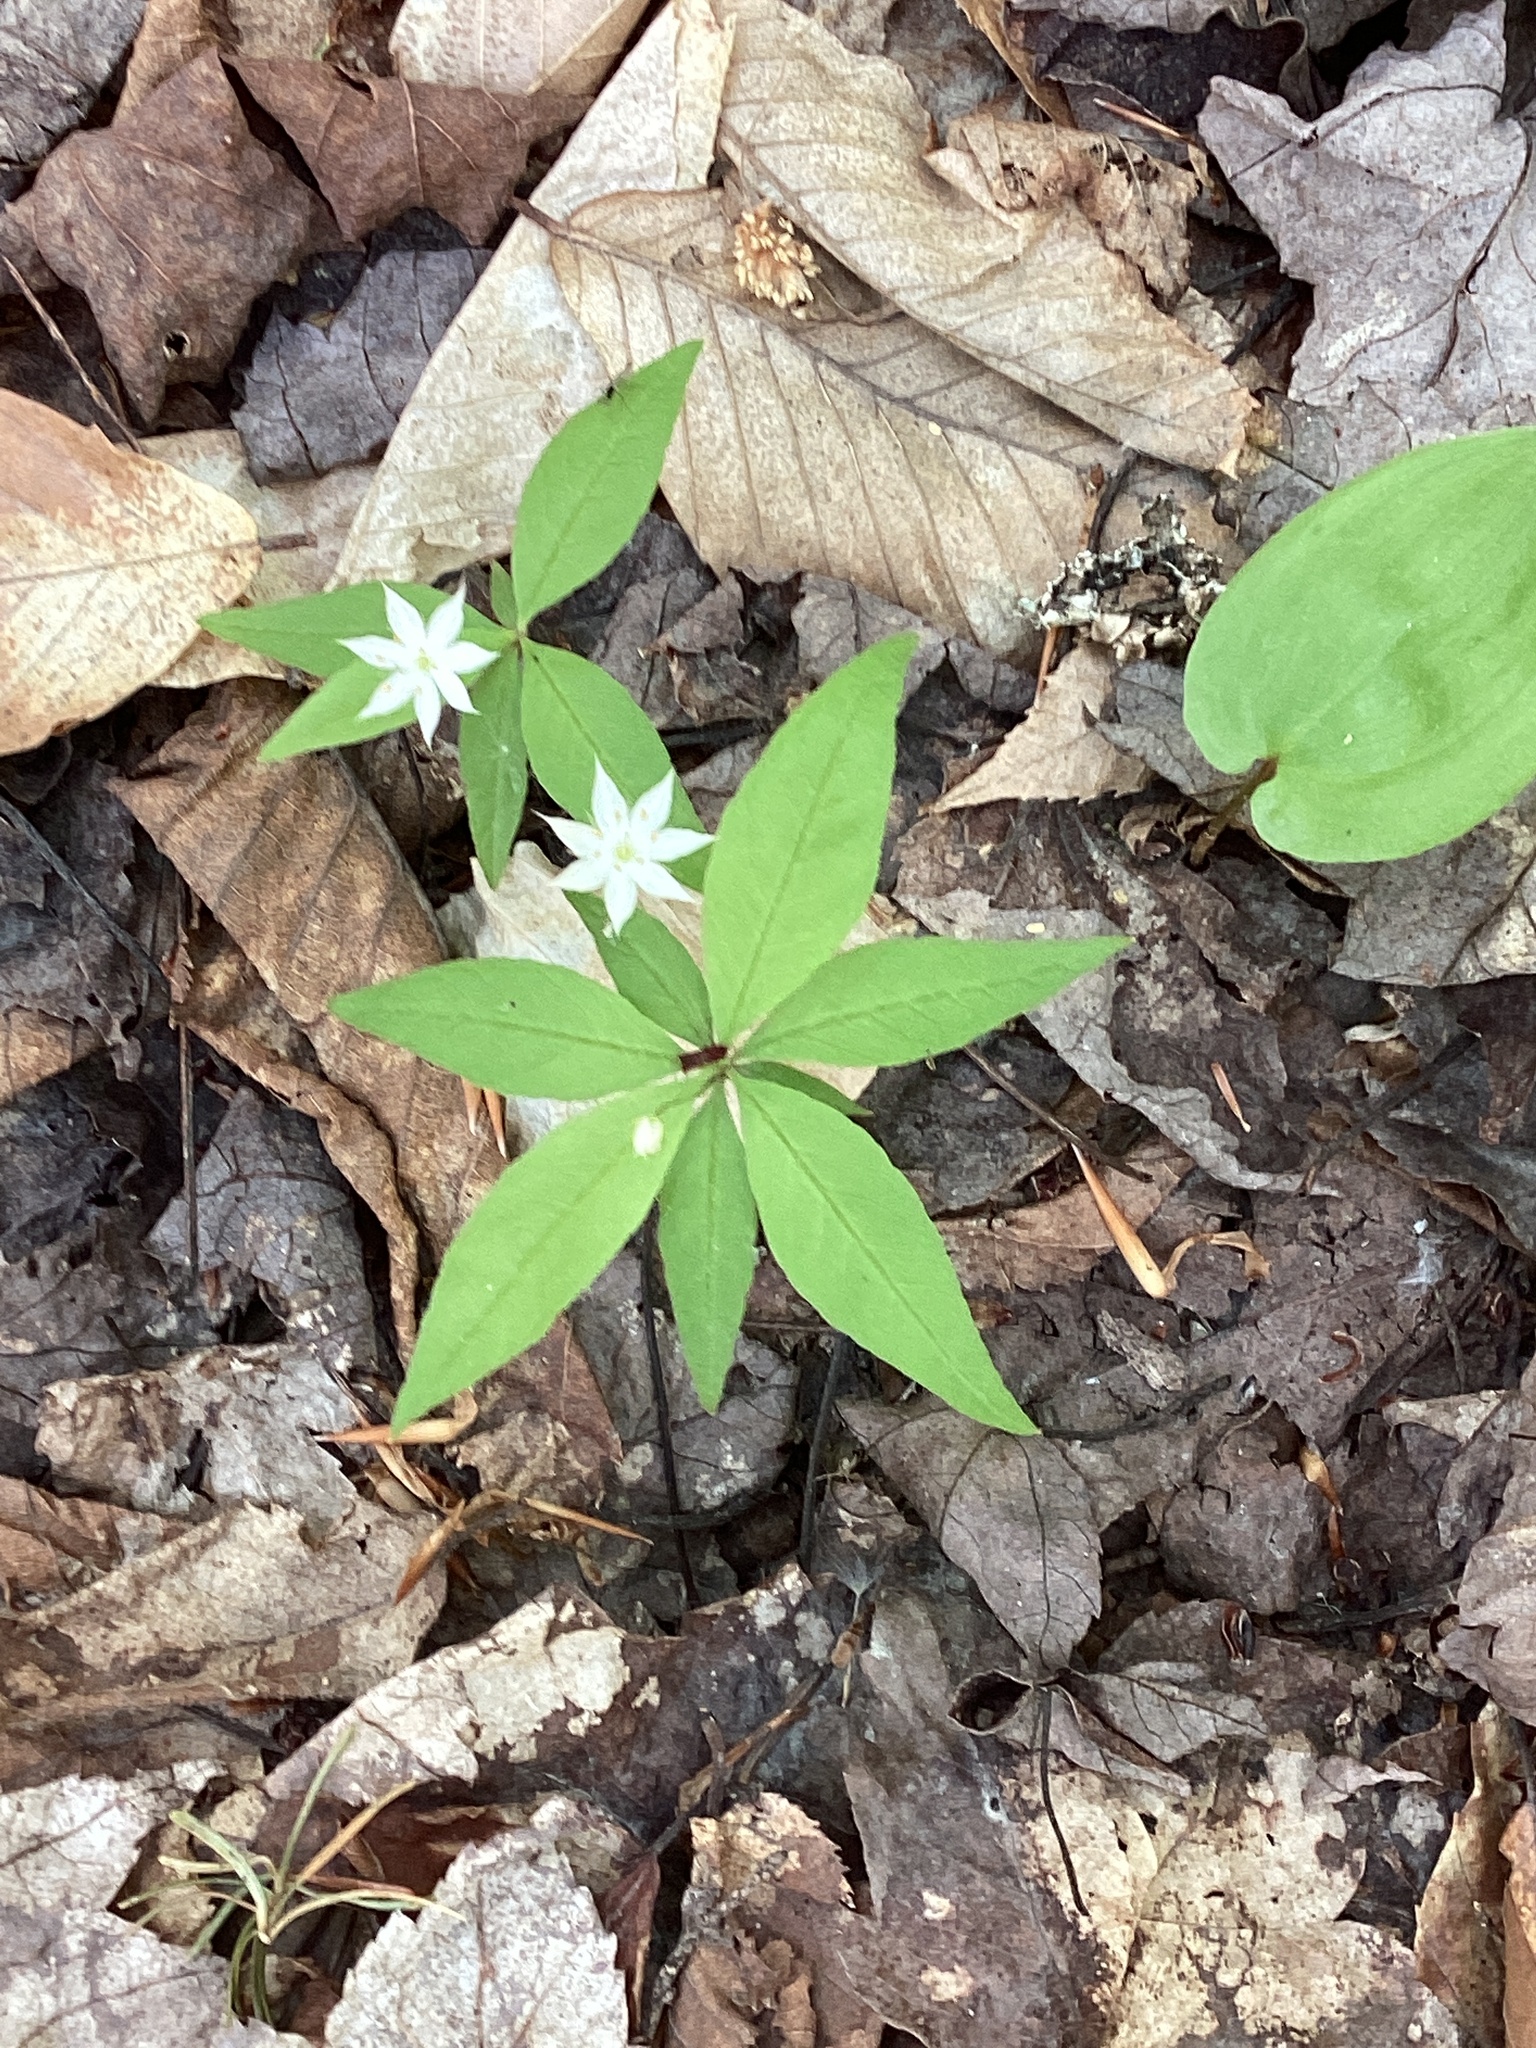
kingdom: Plantae
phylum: Tracheophyta
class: Magnoliopsida
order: Ericales
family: Primulaceae
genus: Lysimachia
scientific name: Lysimachia borealis
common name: American starflower
